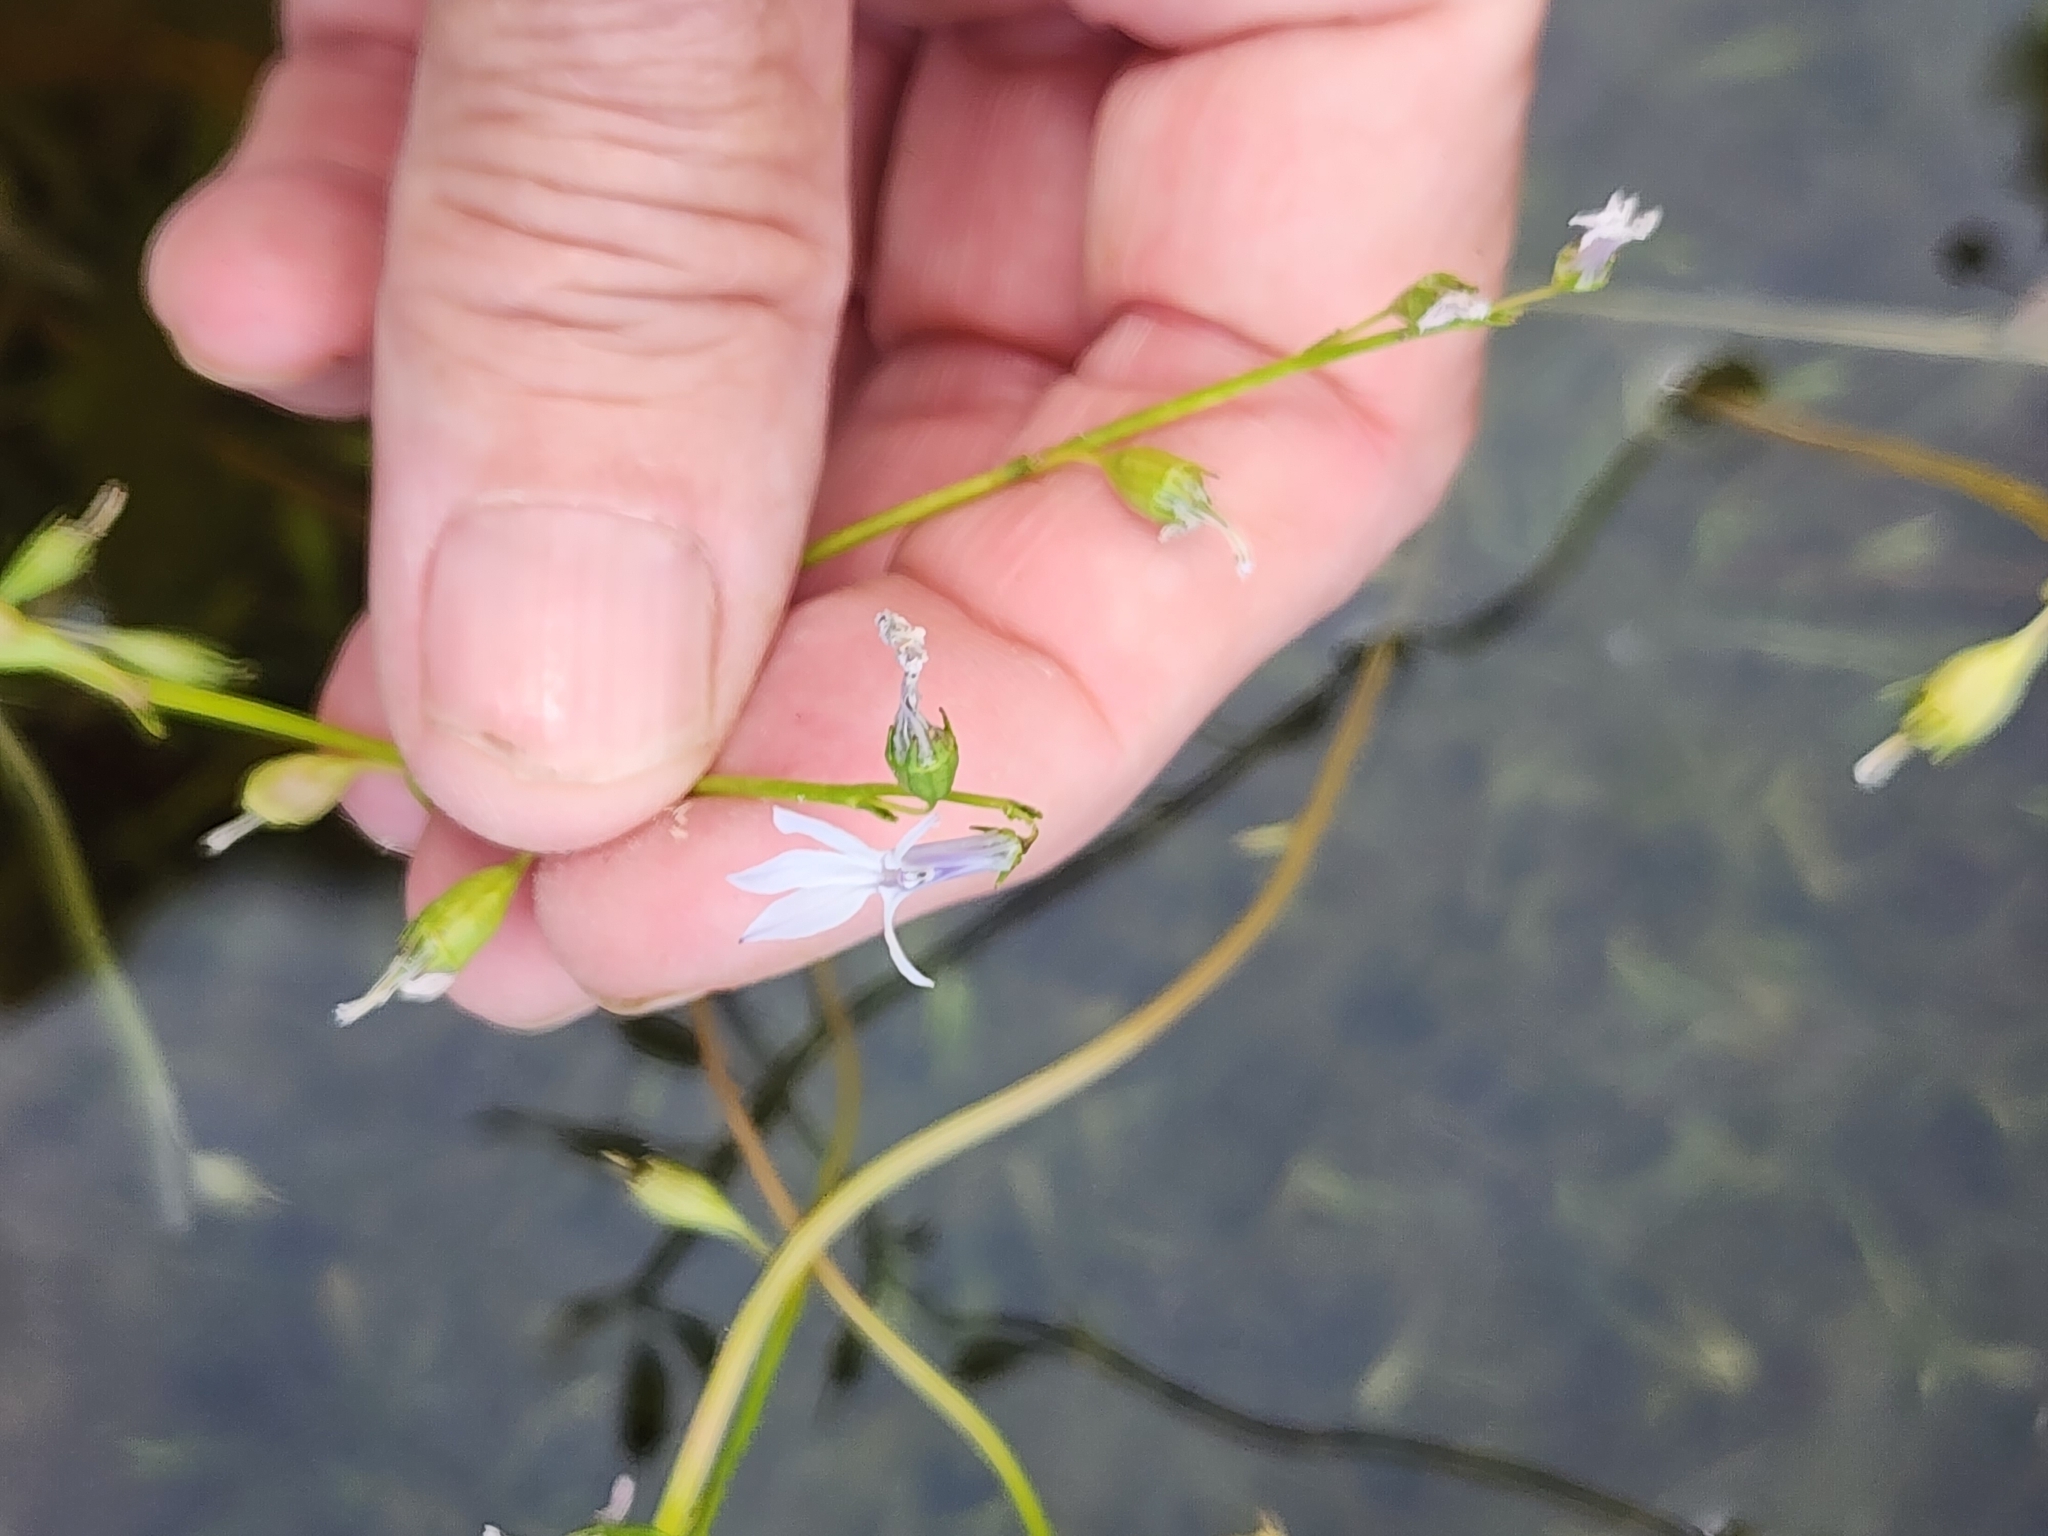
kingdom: Plantae
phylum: Tracheophyta
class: Magnoliopsida
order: Asterales
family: Campanulaceae
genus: Lobelia
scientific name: Lobelia dortmanna
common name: Water lobelia
